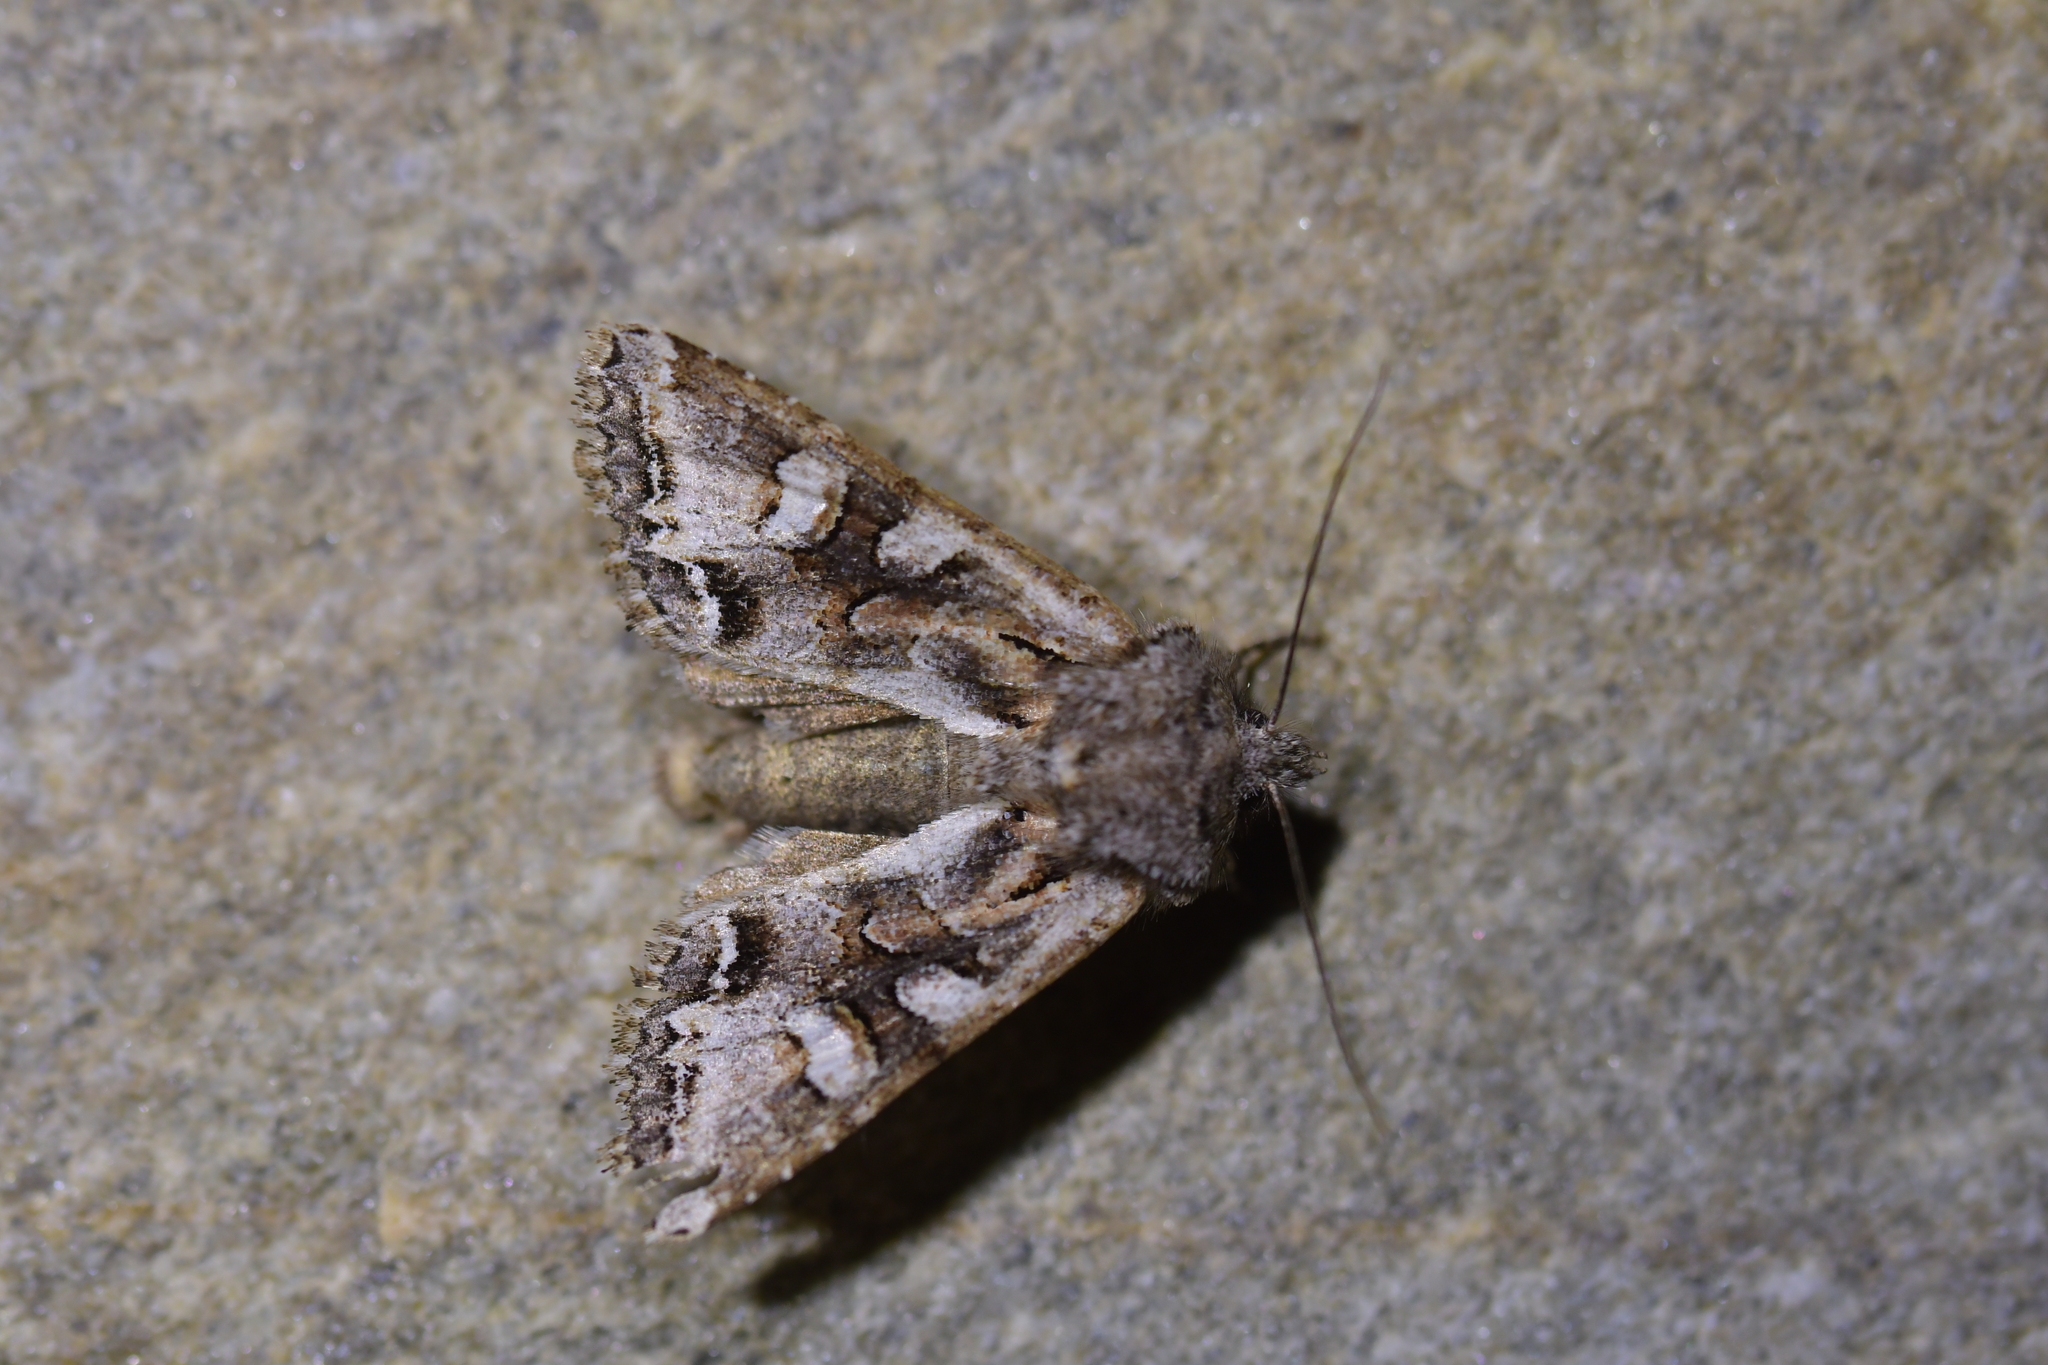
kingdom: Animalia
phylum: Arthropoda
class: Insecta
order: Lepidoptera
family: Noctuidae
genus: Ichneutica
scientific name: Ichneutica skelloni
